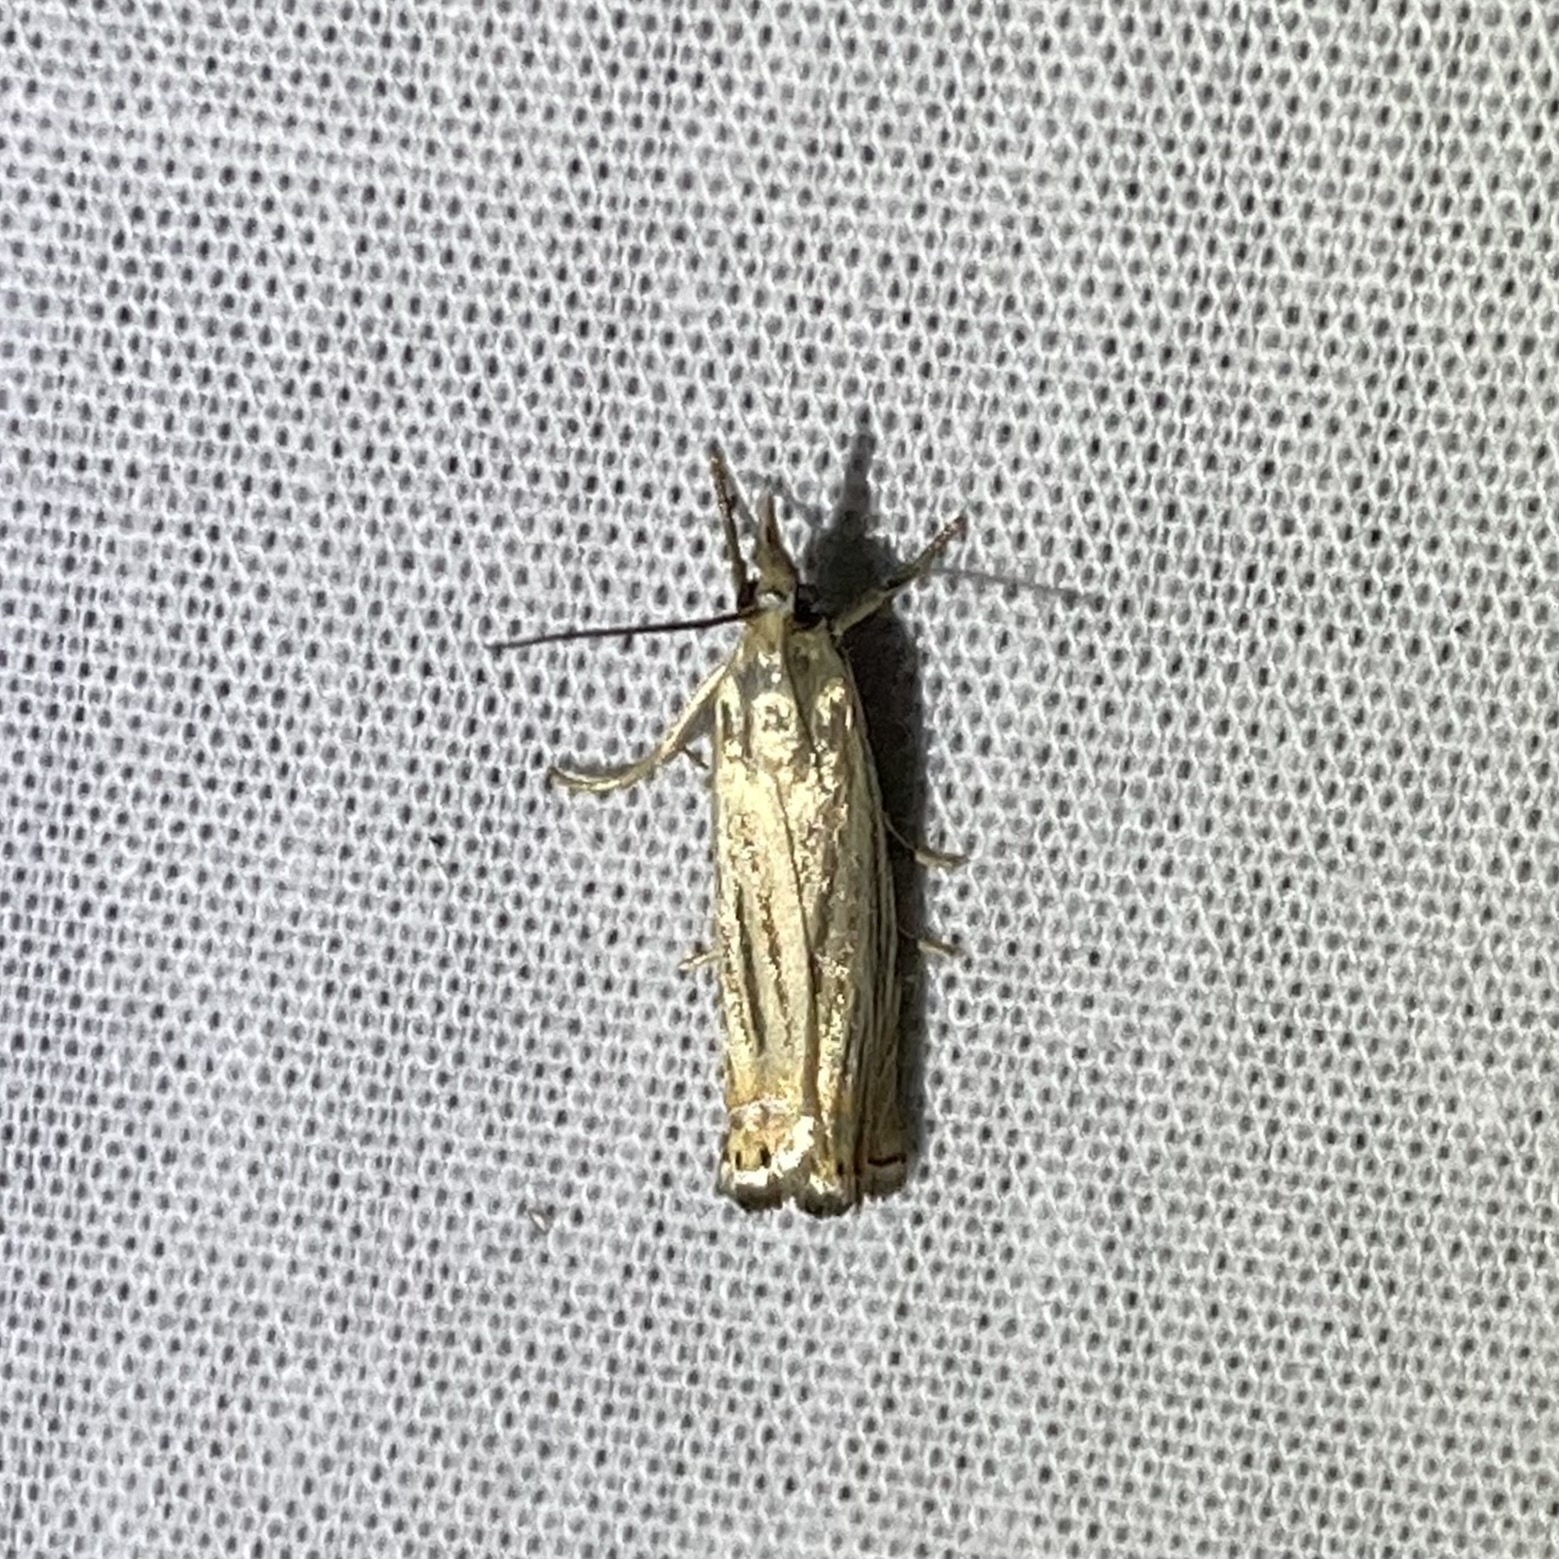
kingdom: Animalia
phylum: Arthropoda
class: Insecta
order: Lepidoptera
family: Crambidae
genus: Chrysoteuchia
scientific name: Chrysoteuchia topiarius
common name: Topiary grass-veneer
